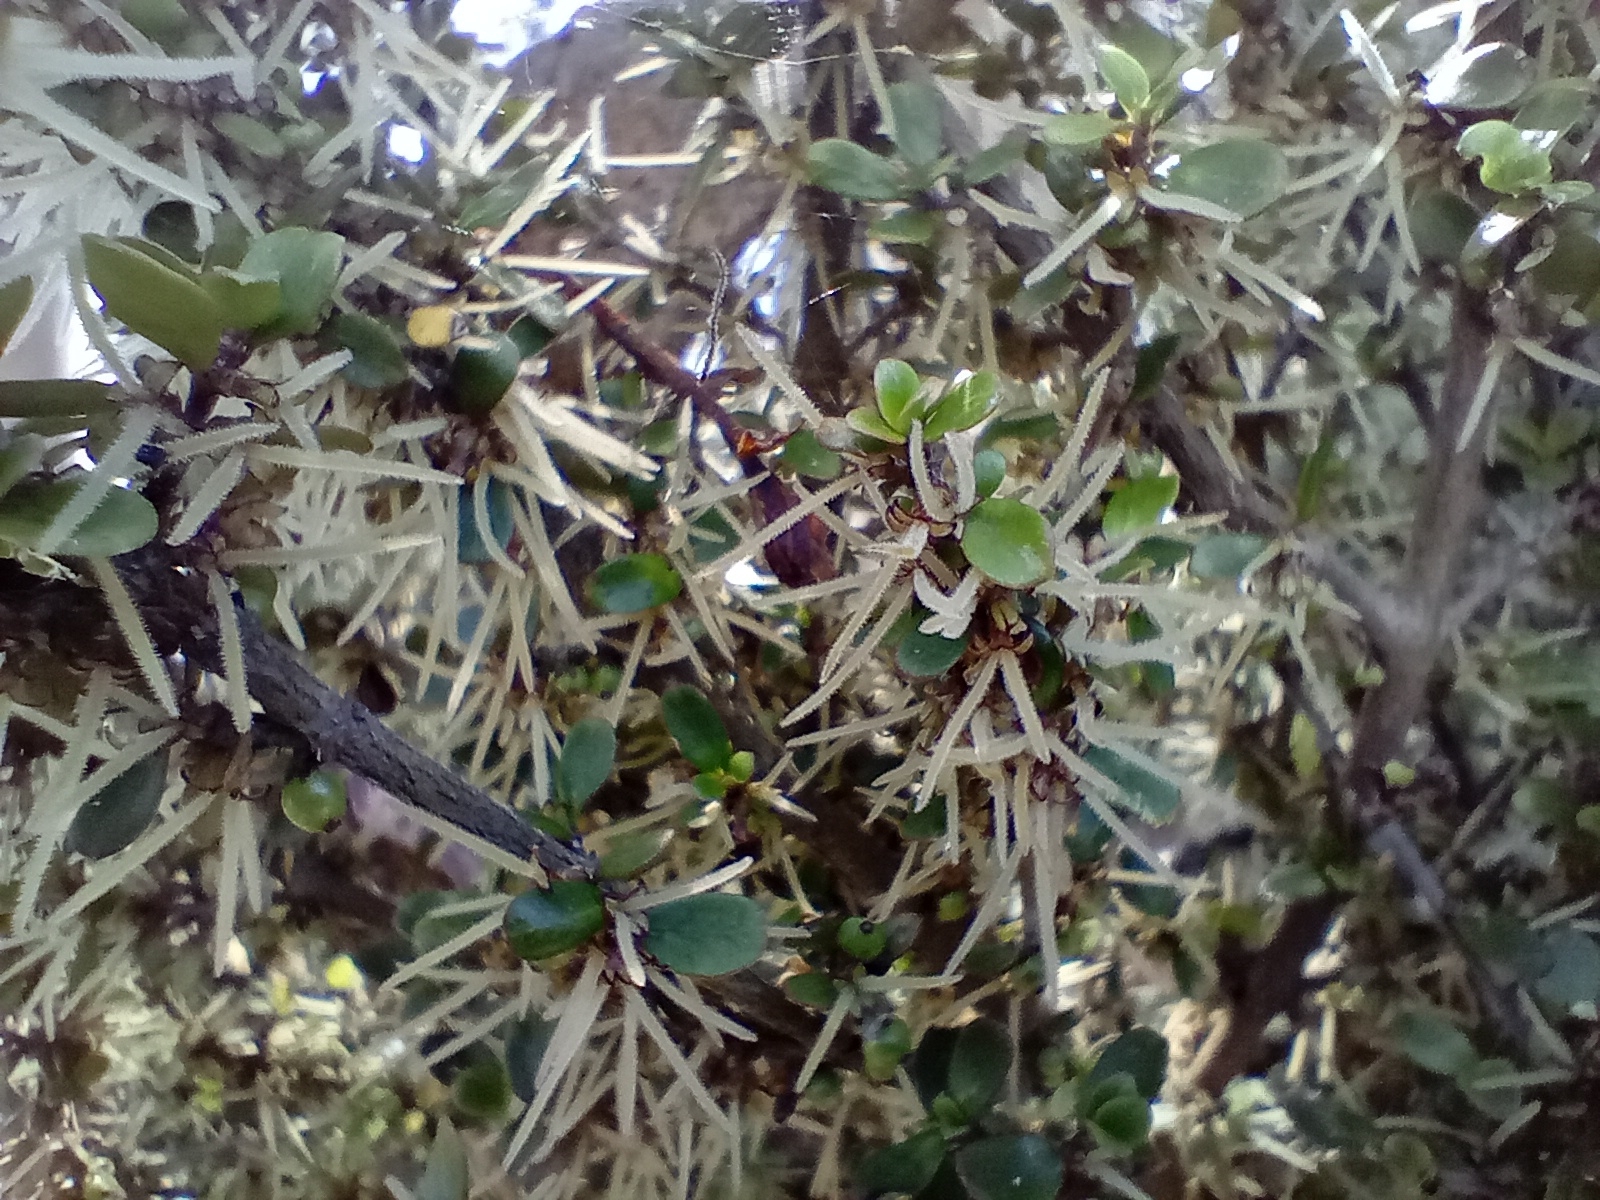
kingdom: Plantae
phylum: Tracheophyta
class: Magnoliopsida
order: Gentianales
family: Rubiaceae
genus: Coprosma
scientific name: Coprosma dumosa
